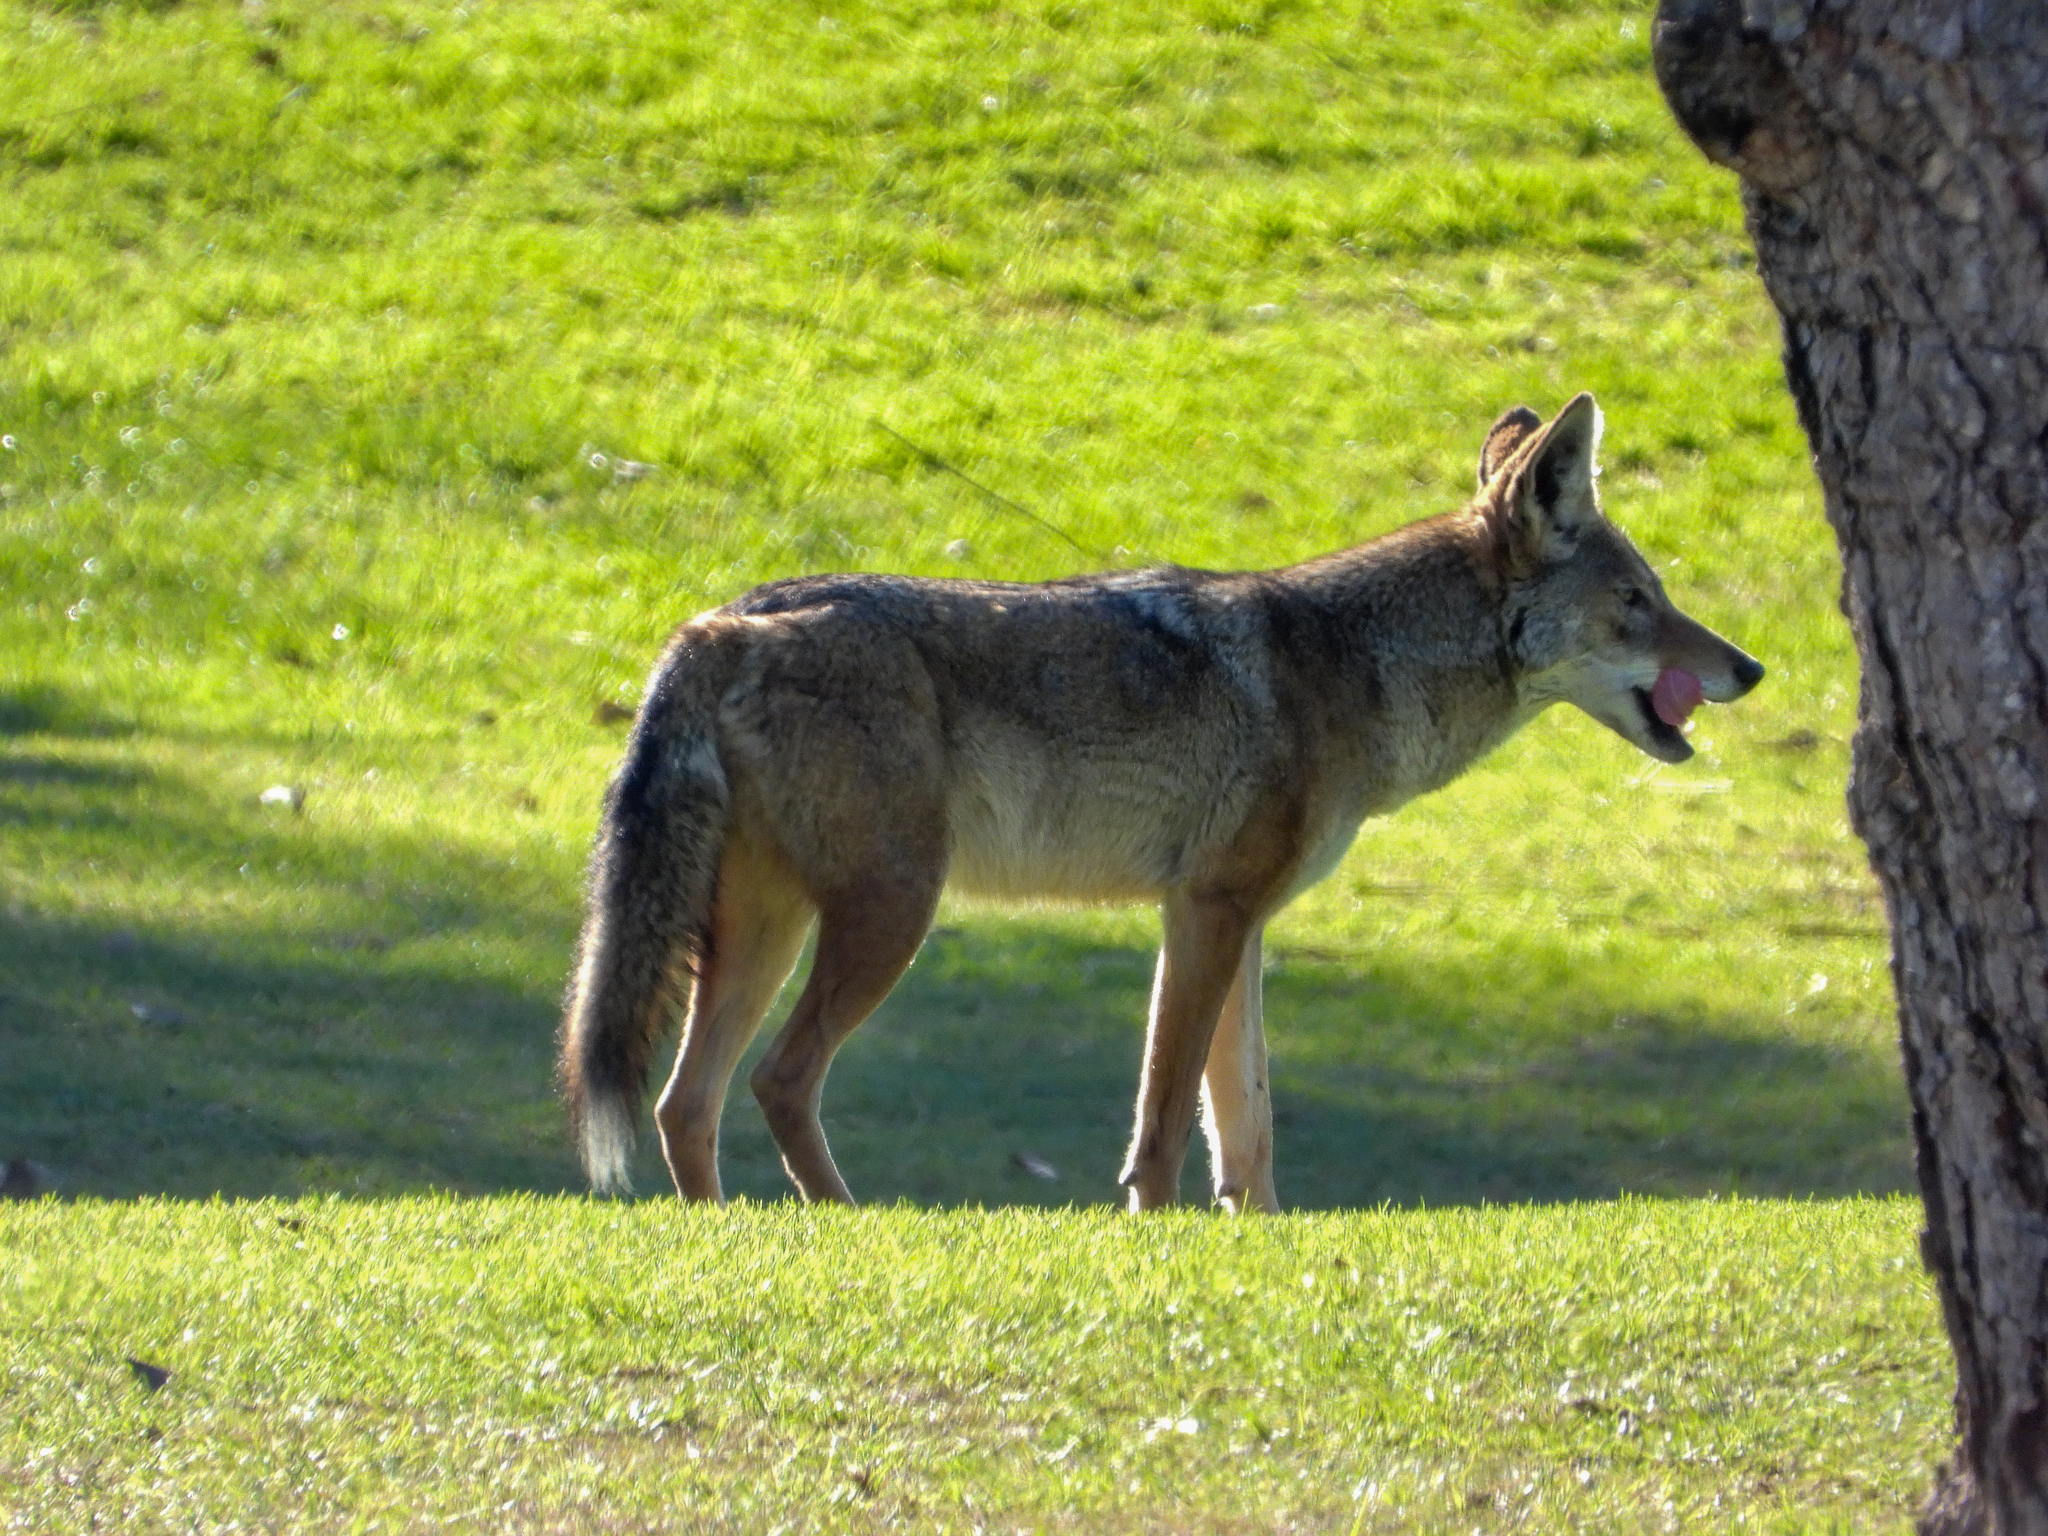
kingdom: Animalia
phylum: Chordata
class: Mammalia
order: Carnivora
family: Canidae
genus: Canis
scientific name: Canis latrans
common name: Coyote
